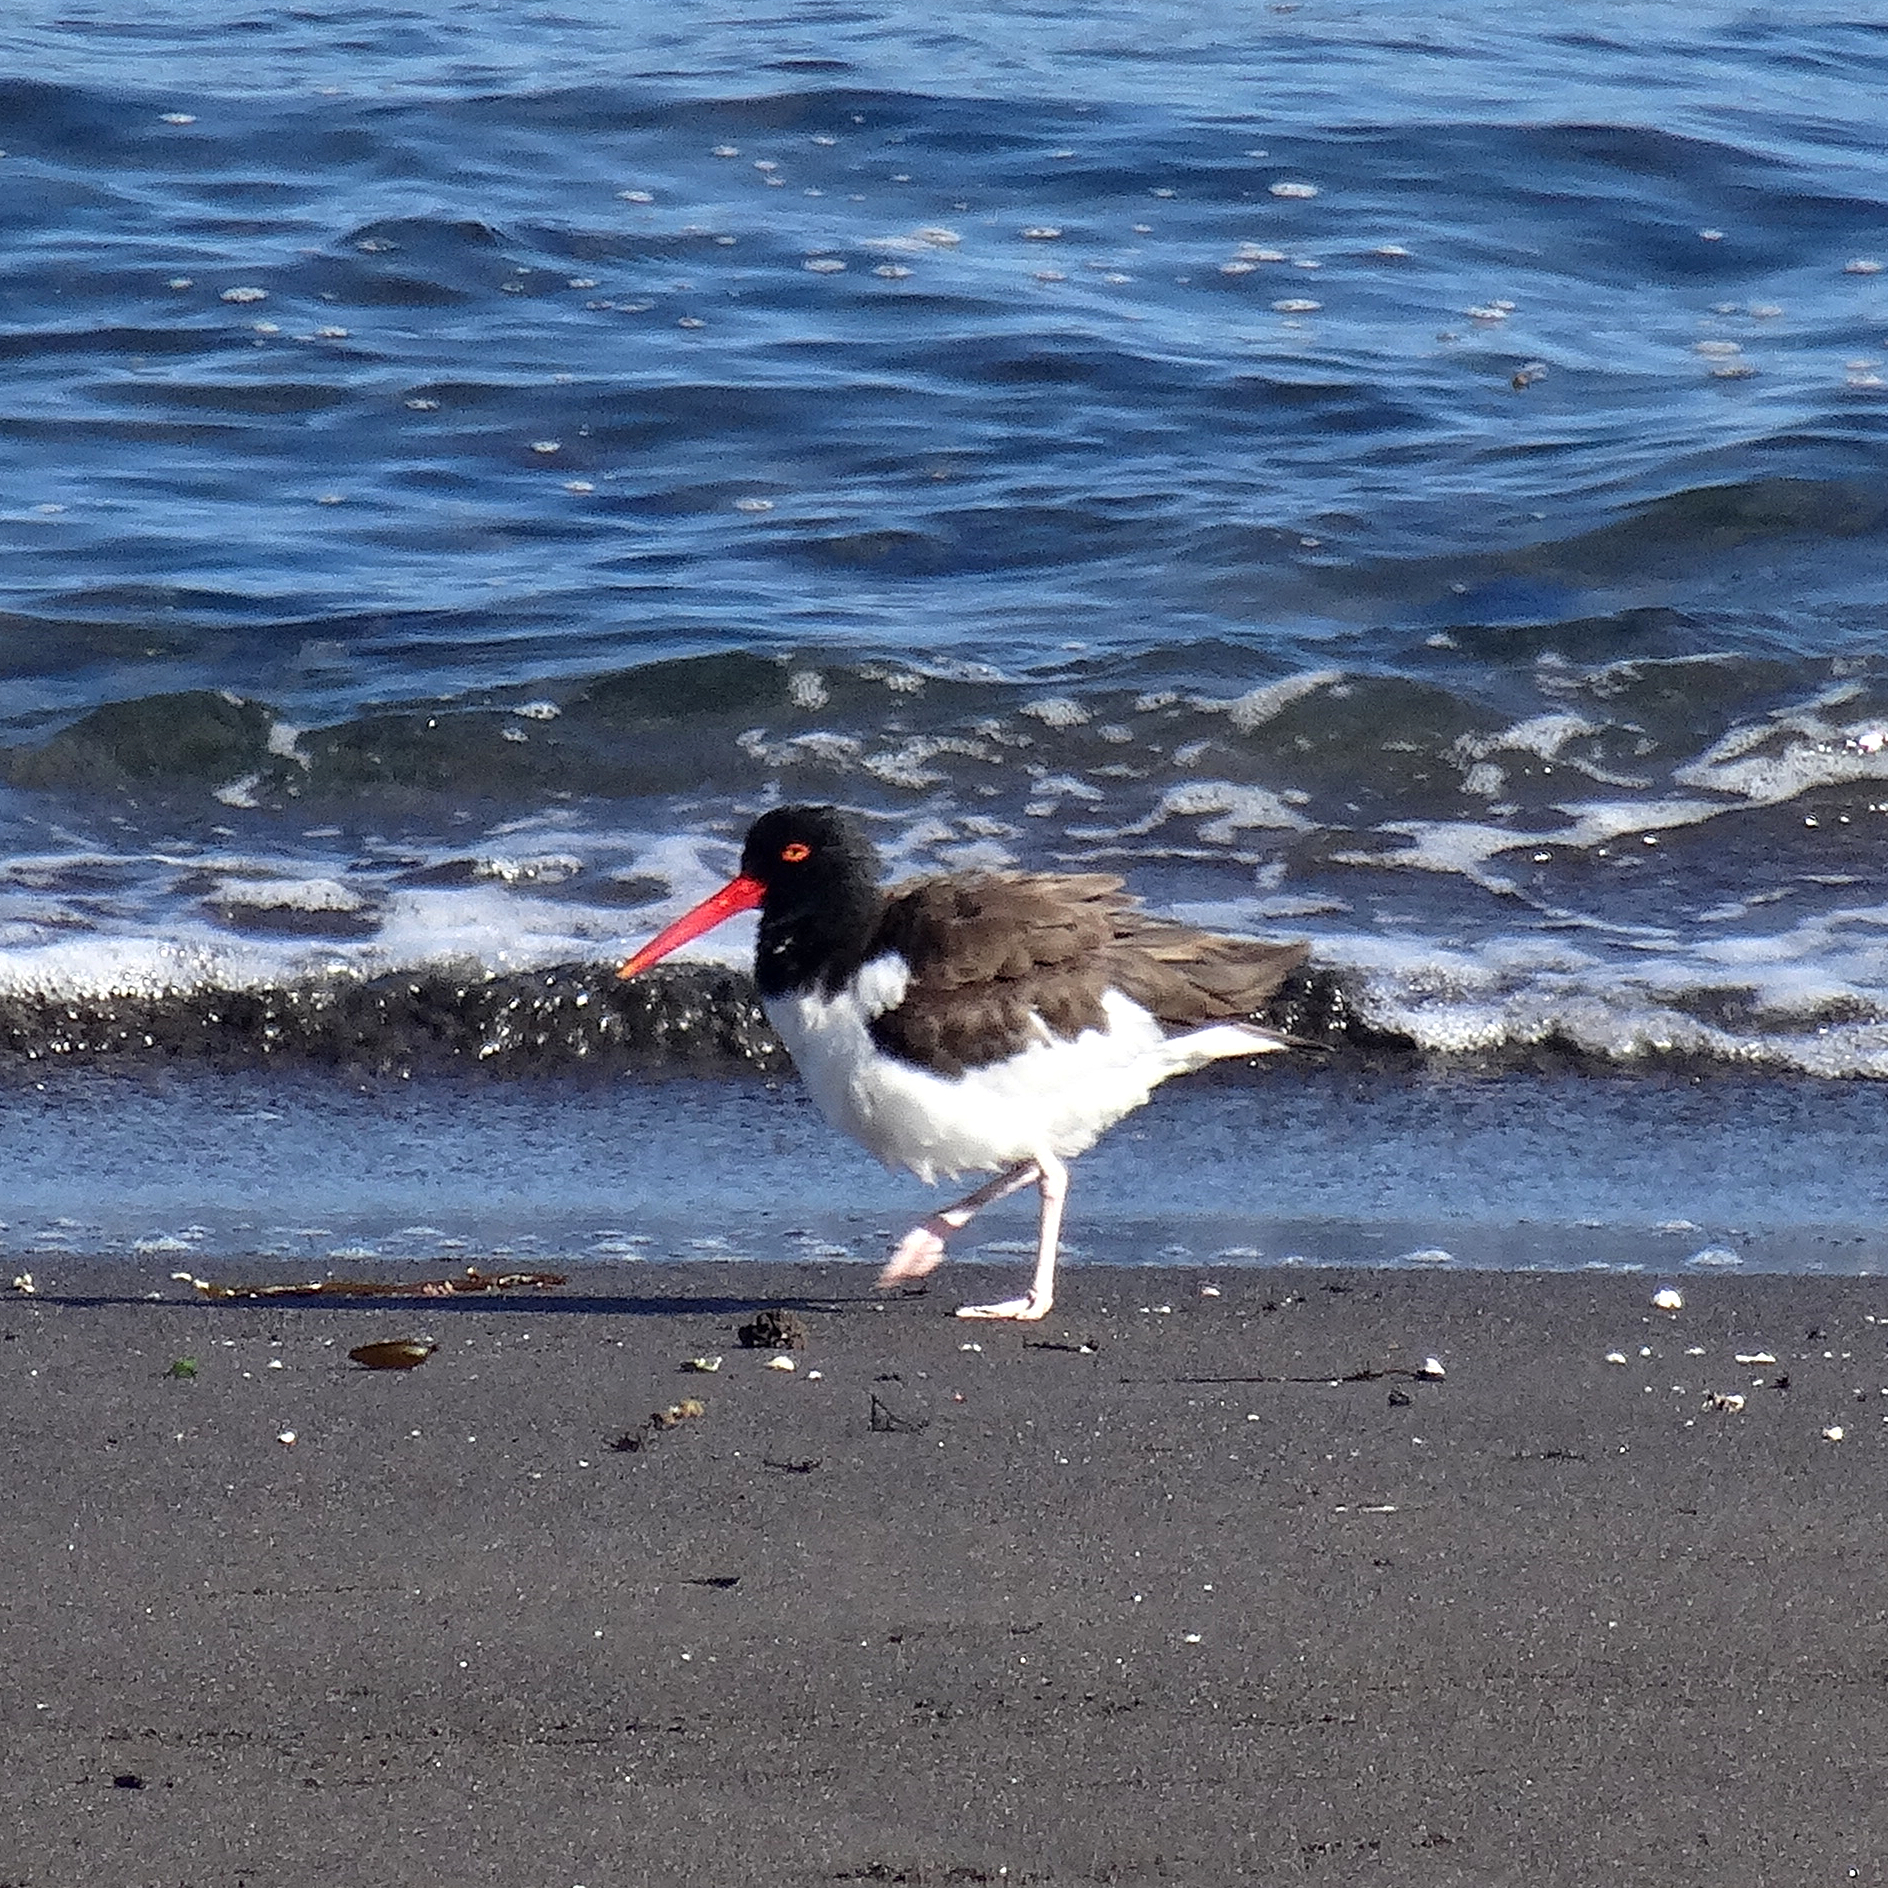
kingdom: Animalia
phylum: Chordata
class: Aves
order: Charadriiformes
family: Haematopodidae
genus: Haematopus
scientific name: Haematopus palliatus
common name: American oystercatcher
